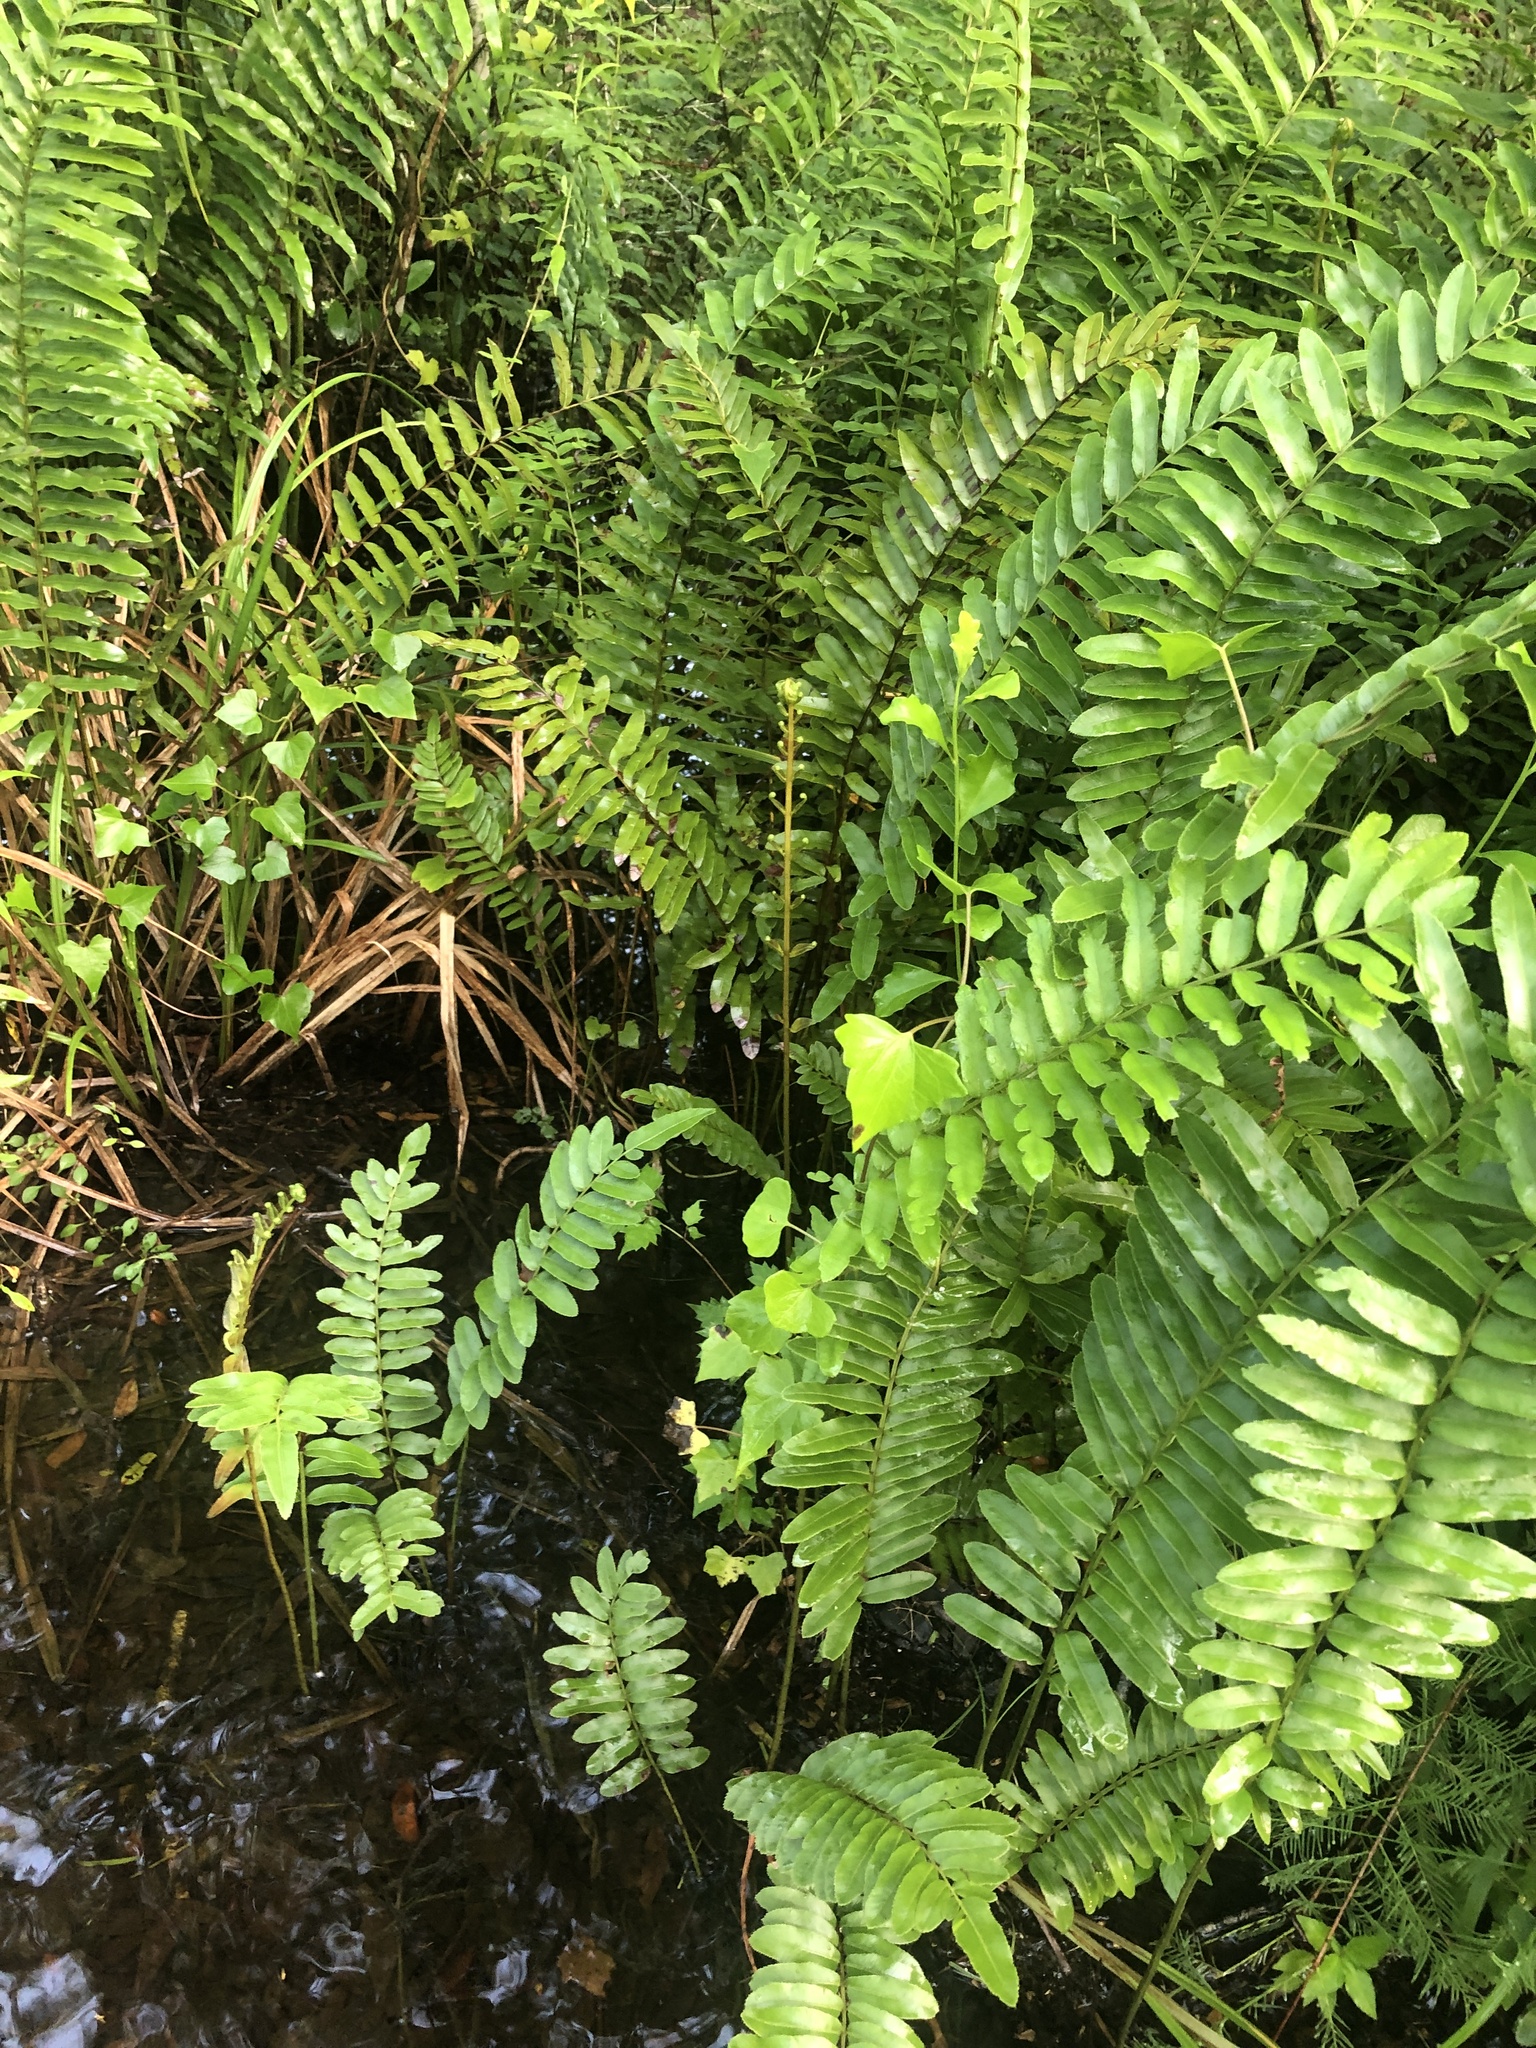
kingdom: Plantae
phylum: Tracheophyta
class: Polypodiopsida
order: Polypodiales
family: Blechnaceae
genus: Telmatoblechnum
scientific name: Telmatoblechnum serrulatum
